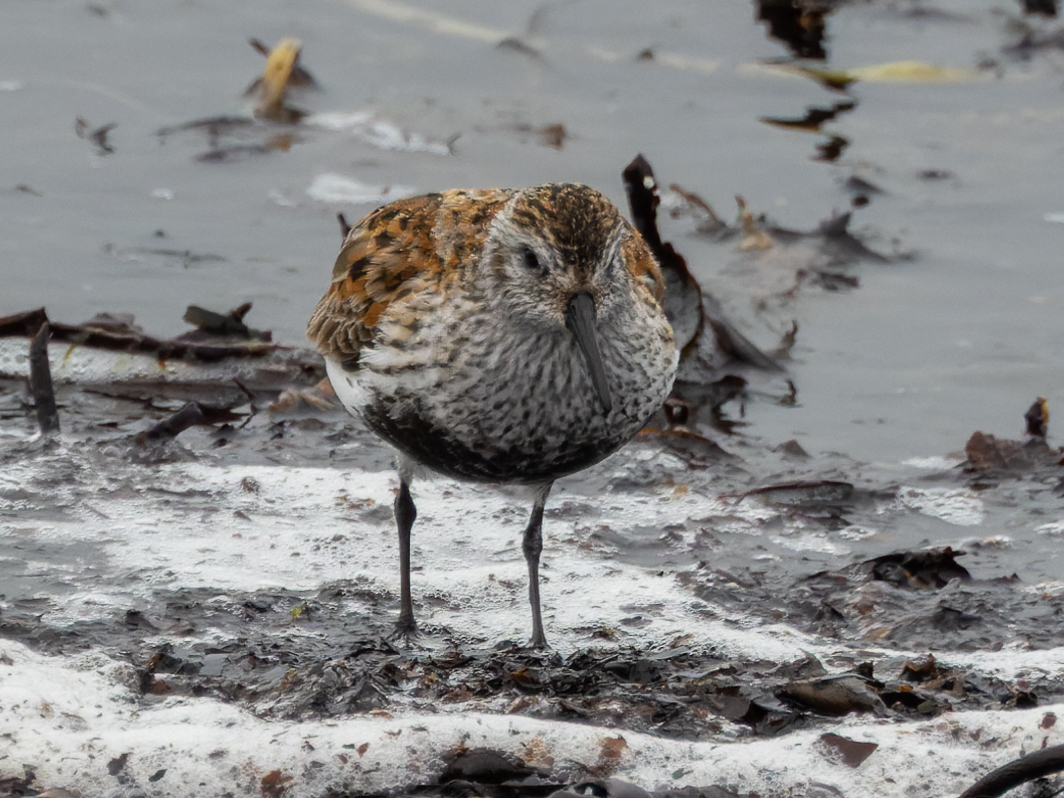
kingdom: Animalia
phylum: Chordata
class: Aves
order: Charadriiformes
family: Scolopacidae
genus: Calidris
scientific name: Calidris alpina
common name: Dunlin
